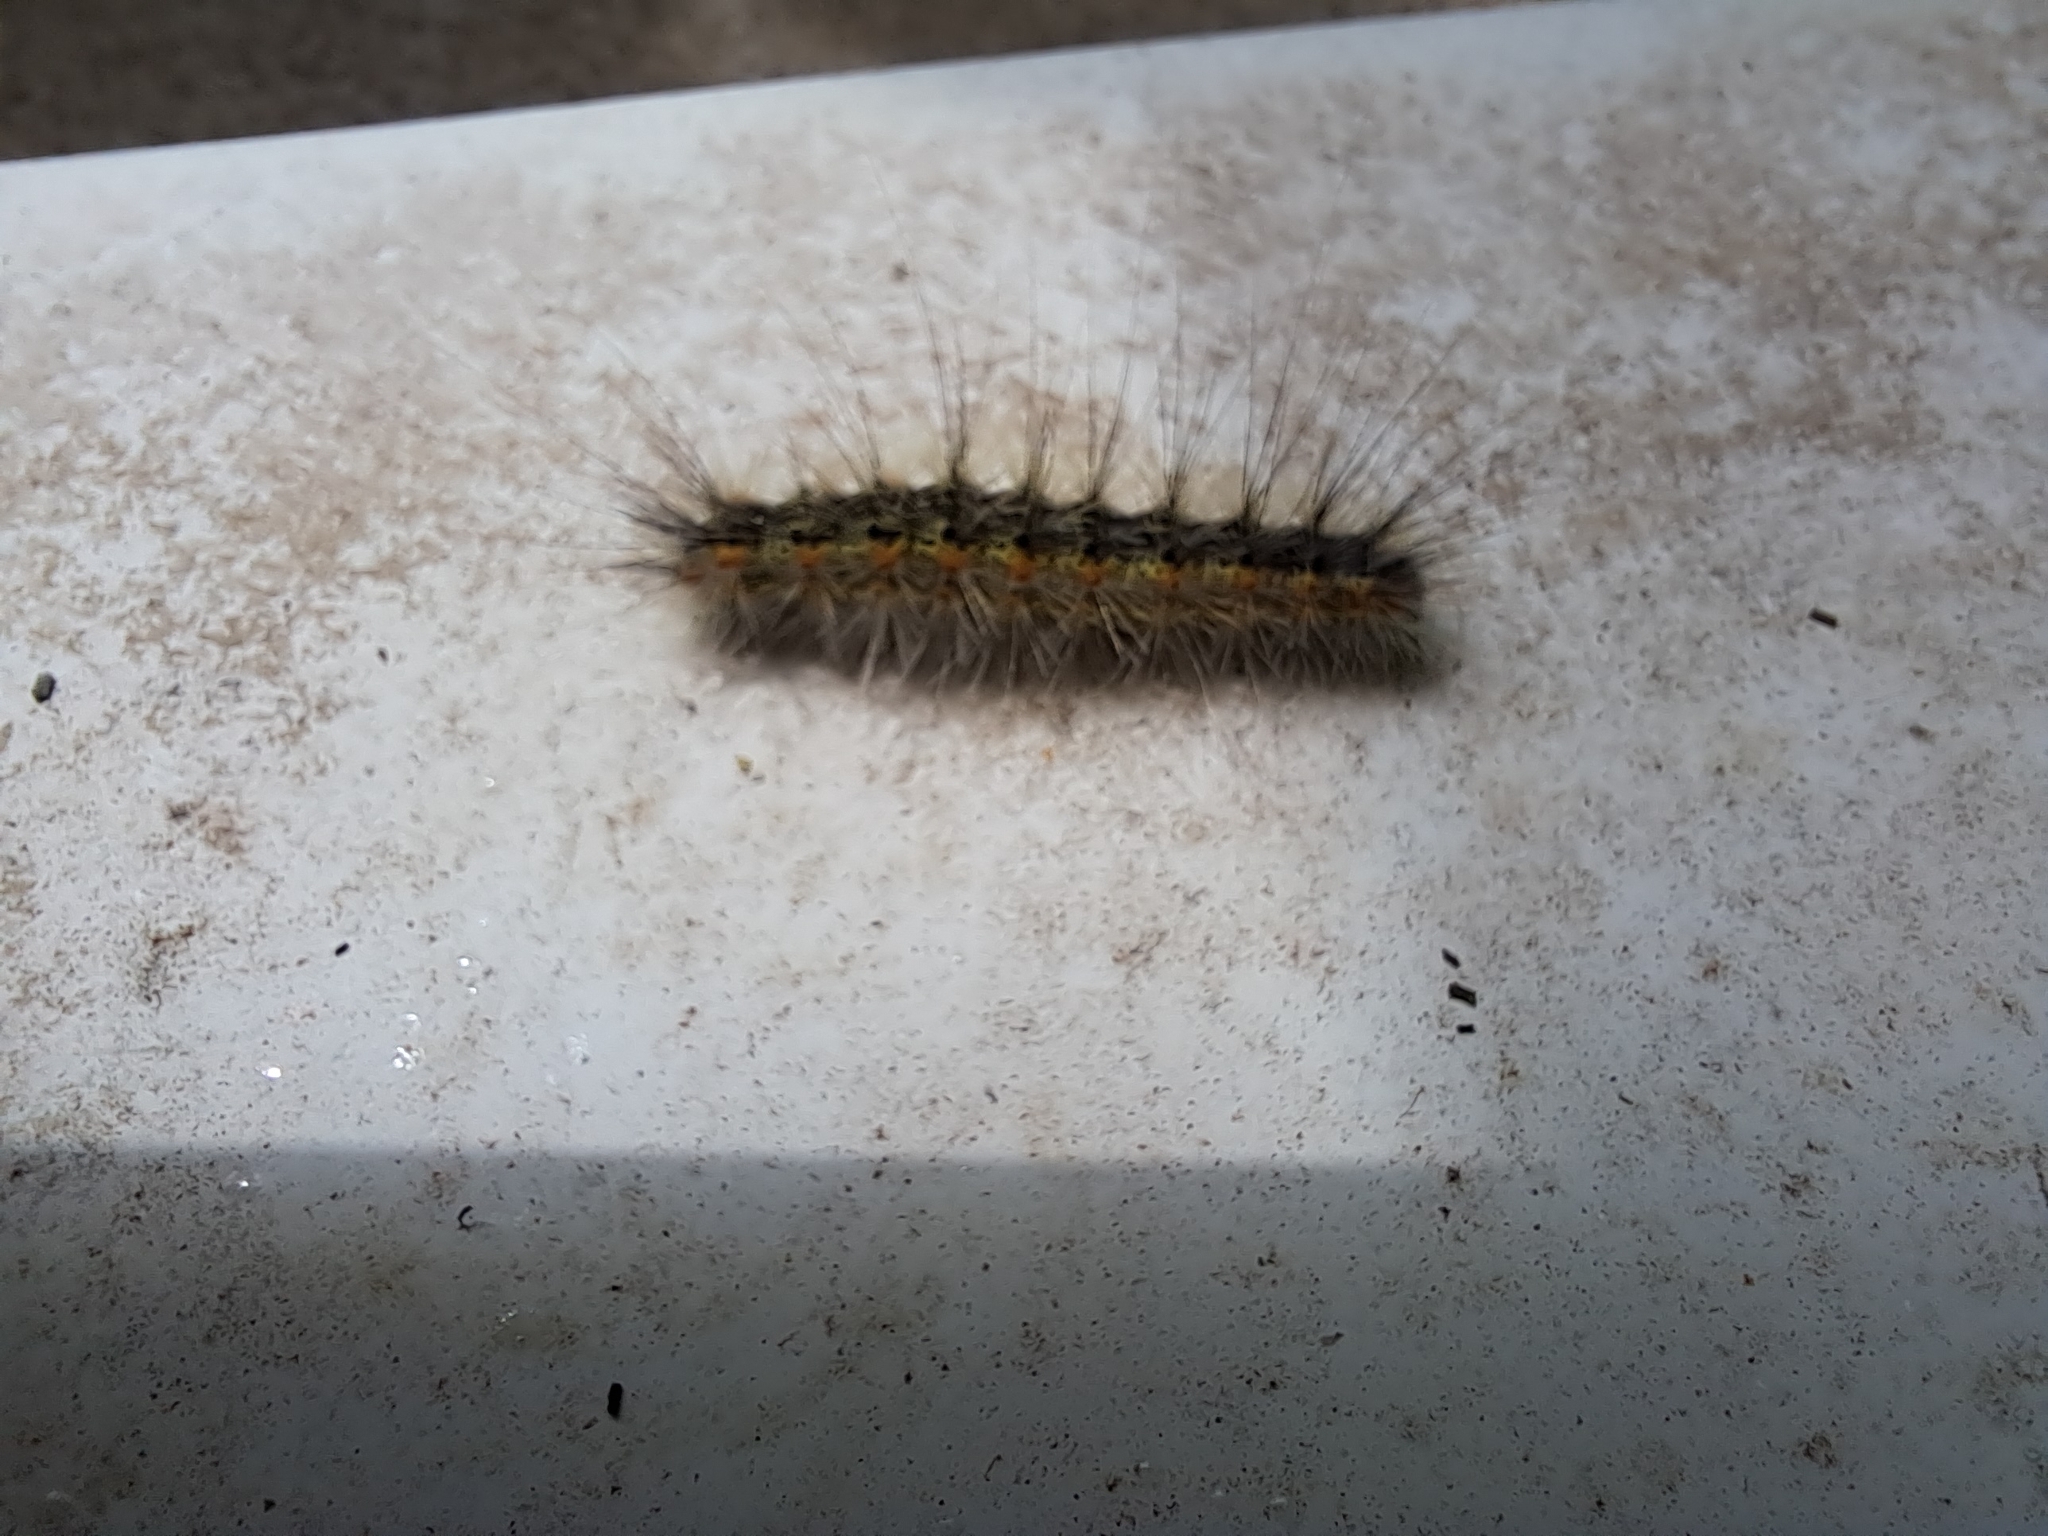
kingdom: Animalia
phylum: Arthropoda
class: Insecta
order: Lepidoptera
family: Erebidae
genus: Hyphantria
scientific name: Hyphantria cunea
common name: American white moth
